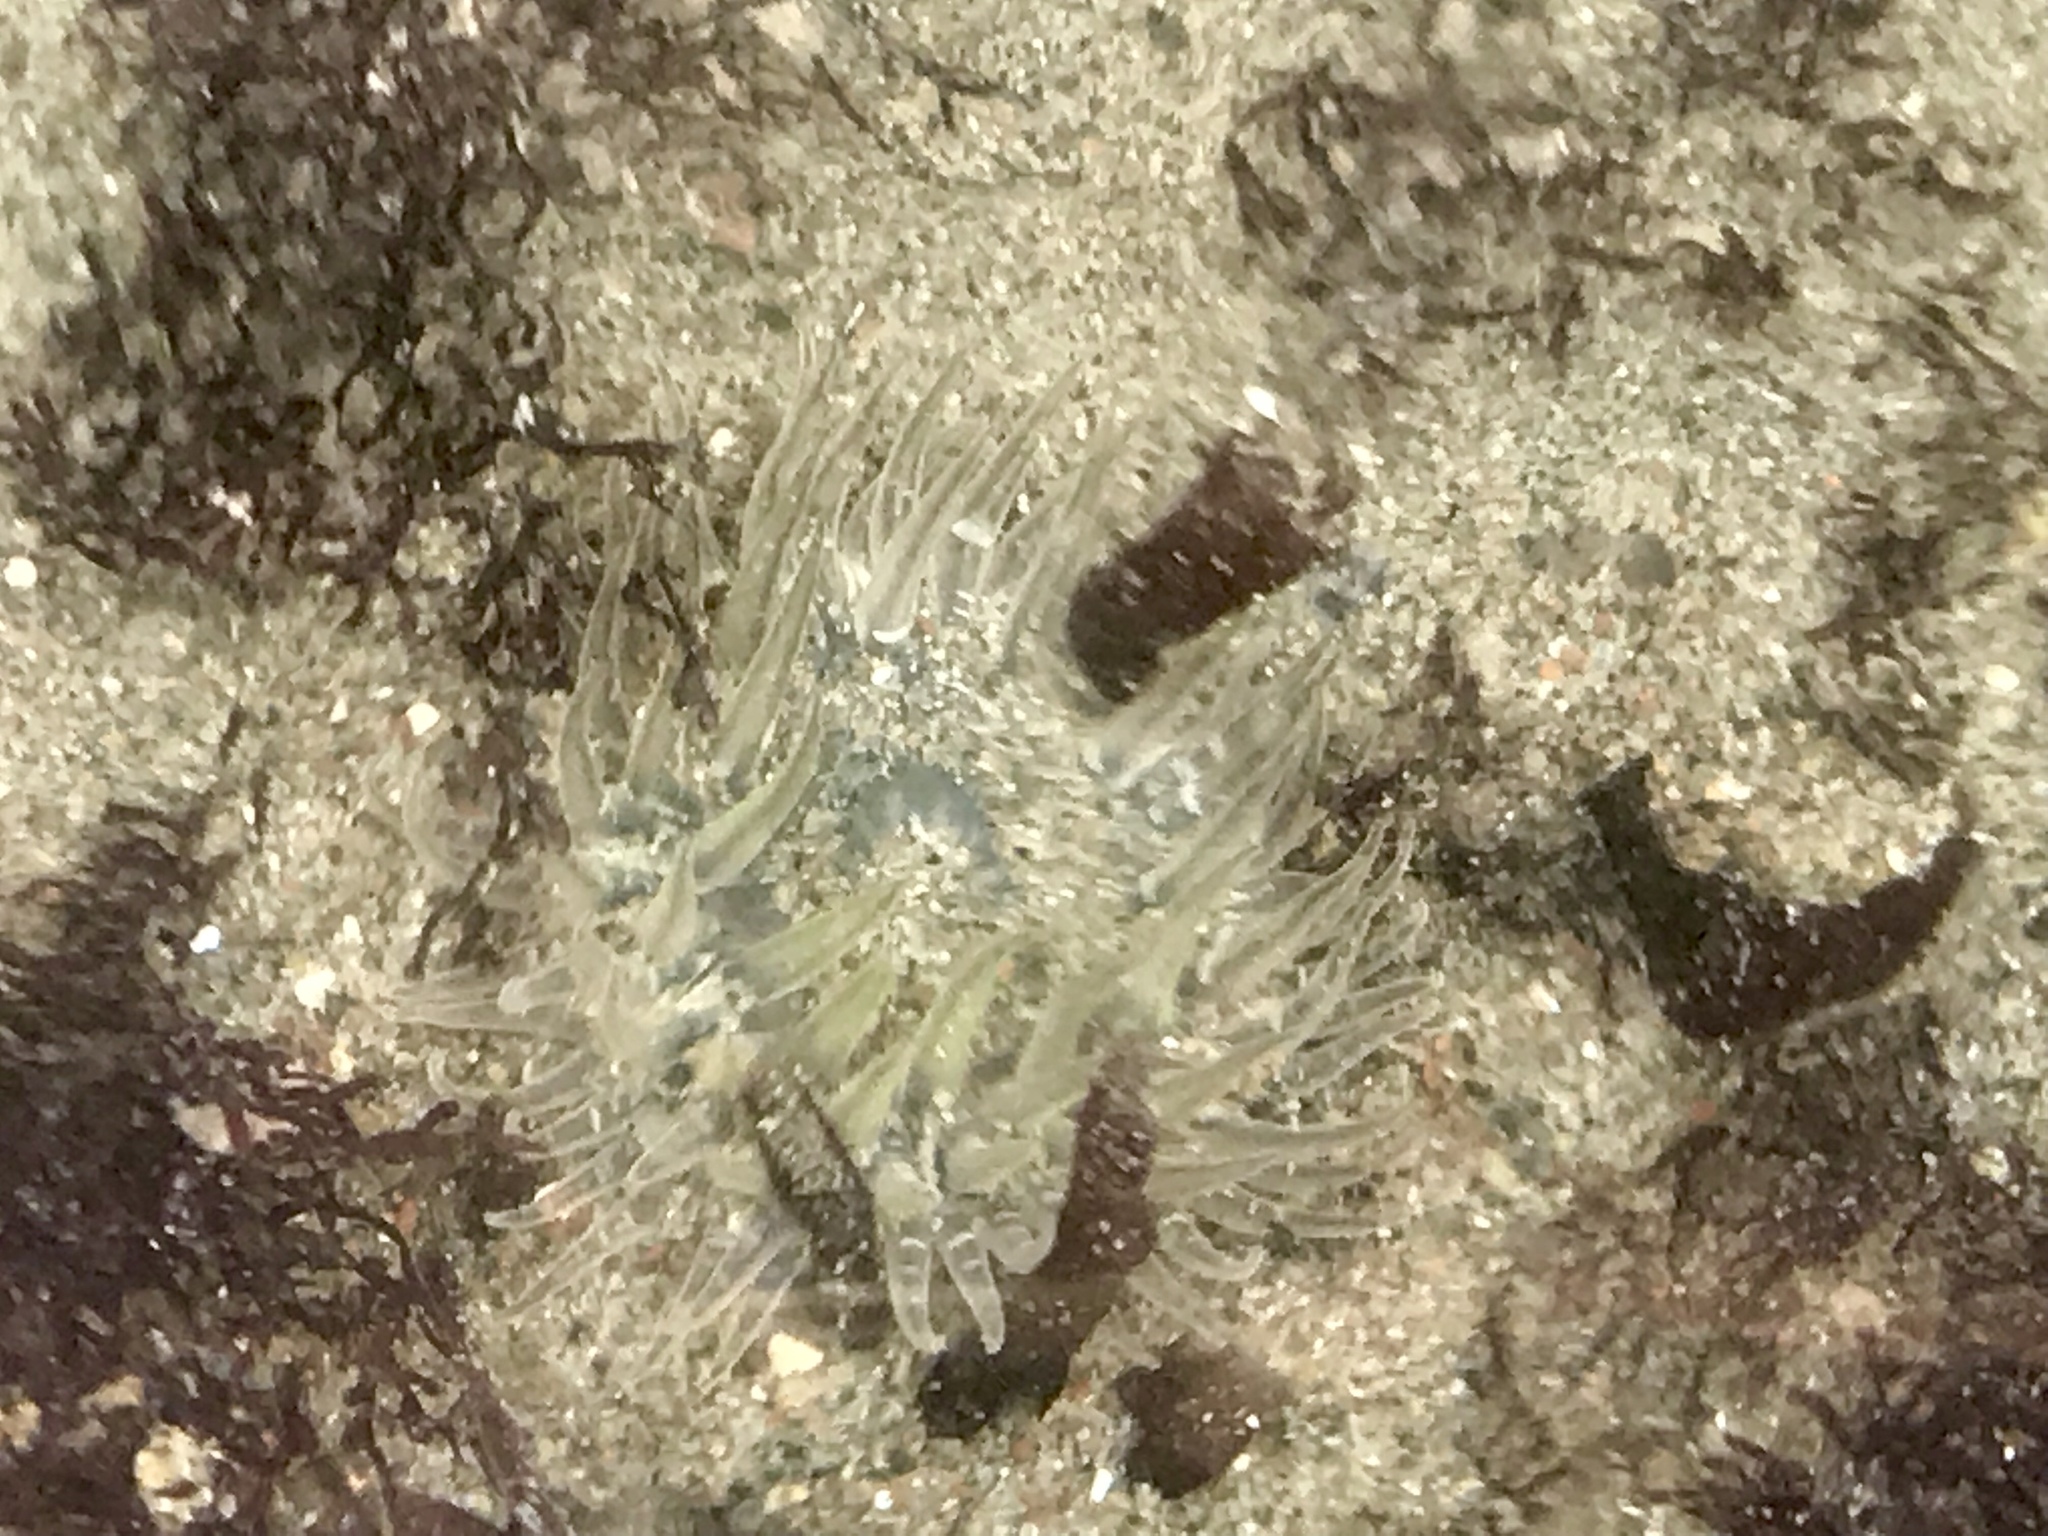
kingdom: Animalia
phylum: Cnidaria
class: Anthozoa
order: Actiniaria
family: Actiniidae
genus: Anthopleura
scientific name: Anthopleura artemisia
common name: Buried sea anemone
